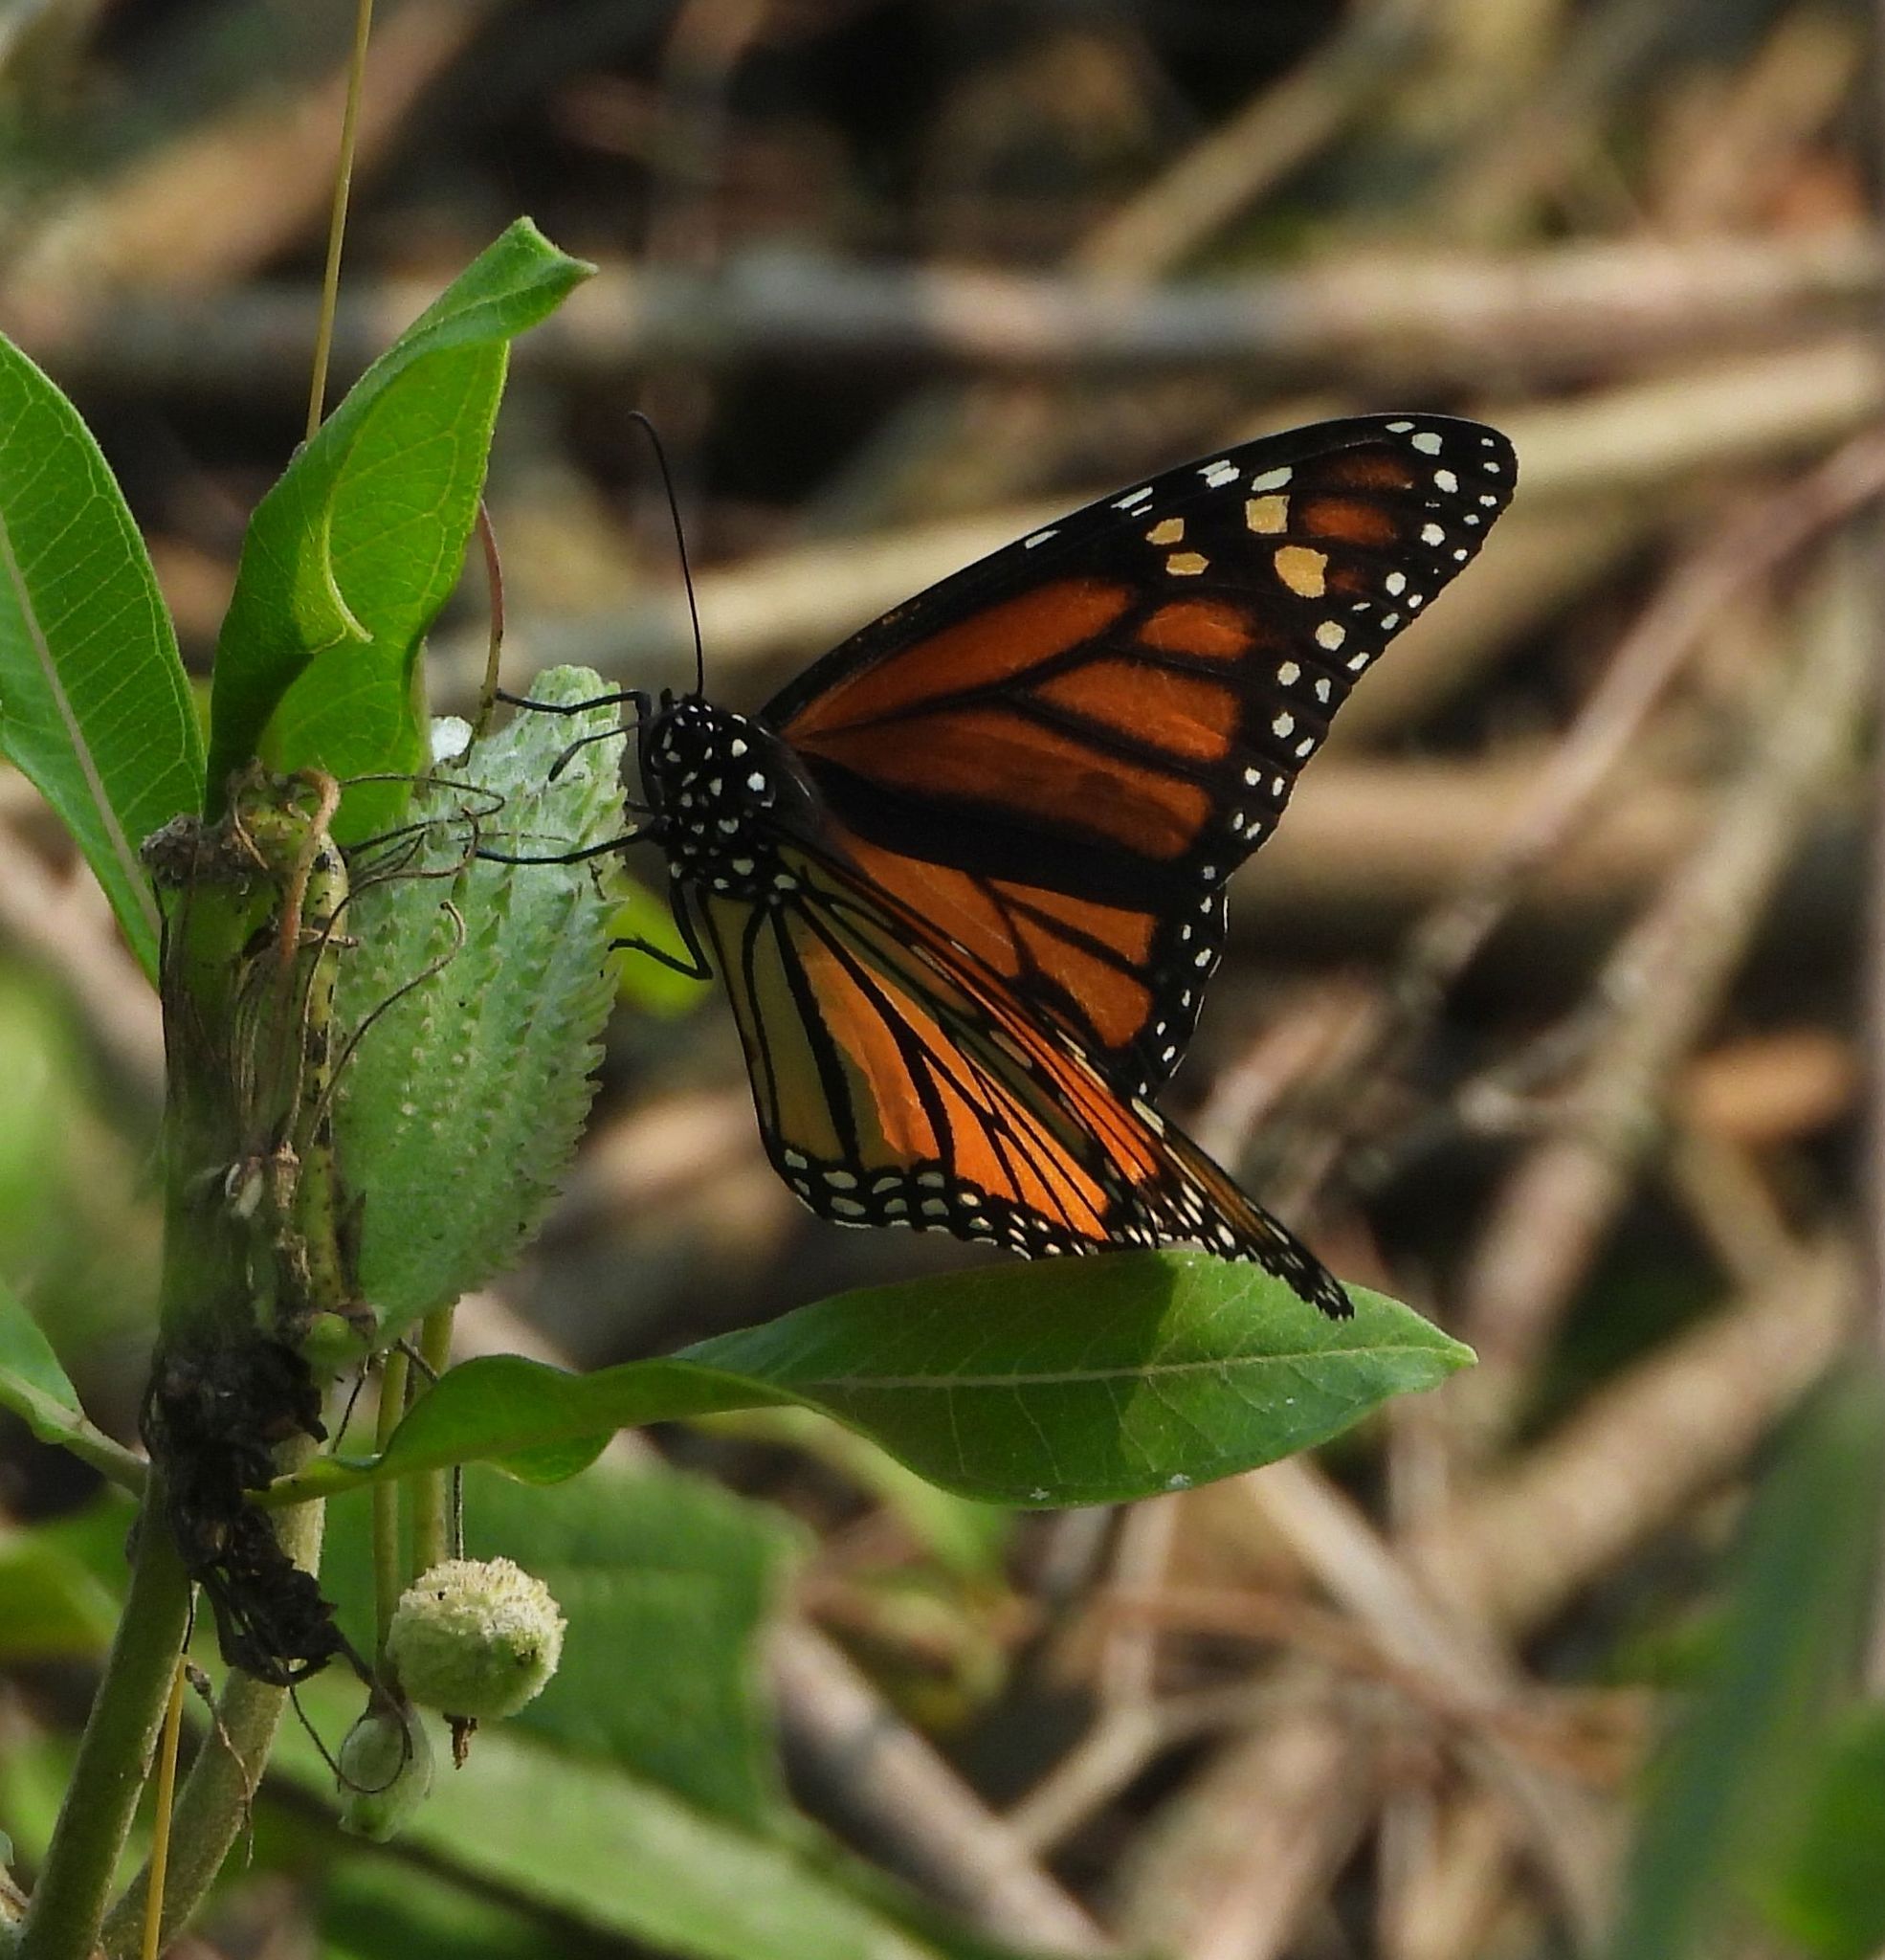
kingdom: Animalia
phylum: Arthropoda
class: Insecta
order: Lepidoptera
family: Nymphalidae
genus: Danaus
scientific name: Danaus plexippus
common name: Monarch
